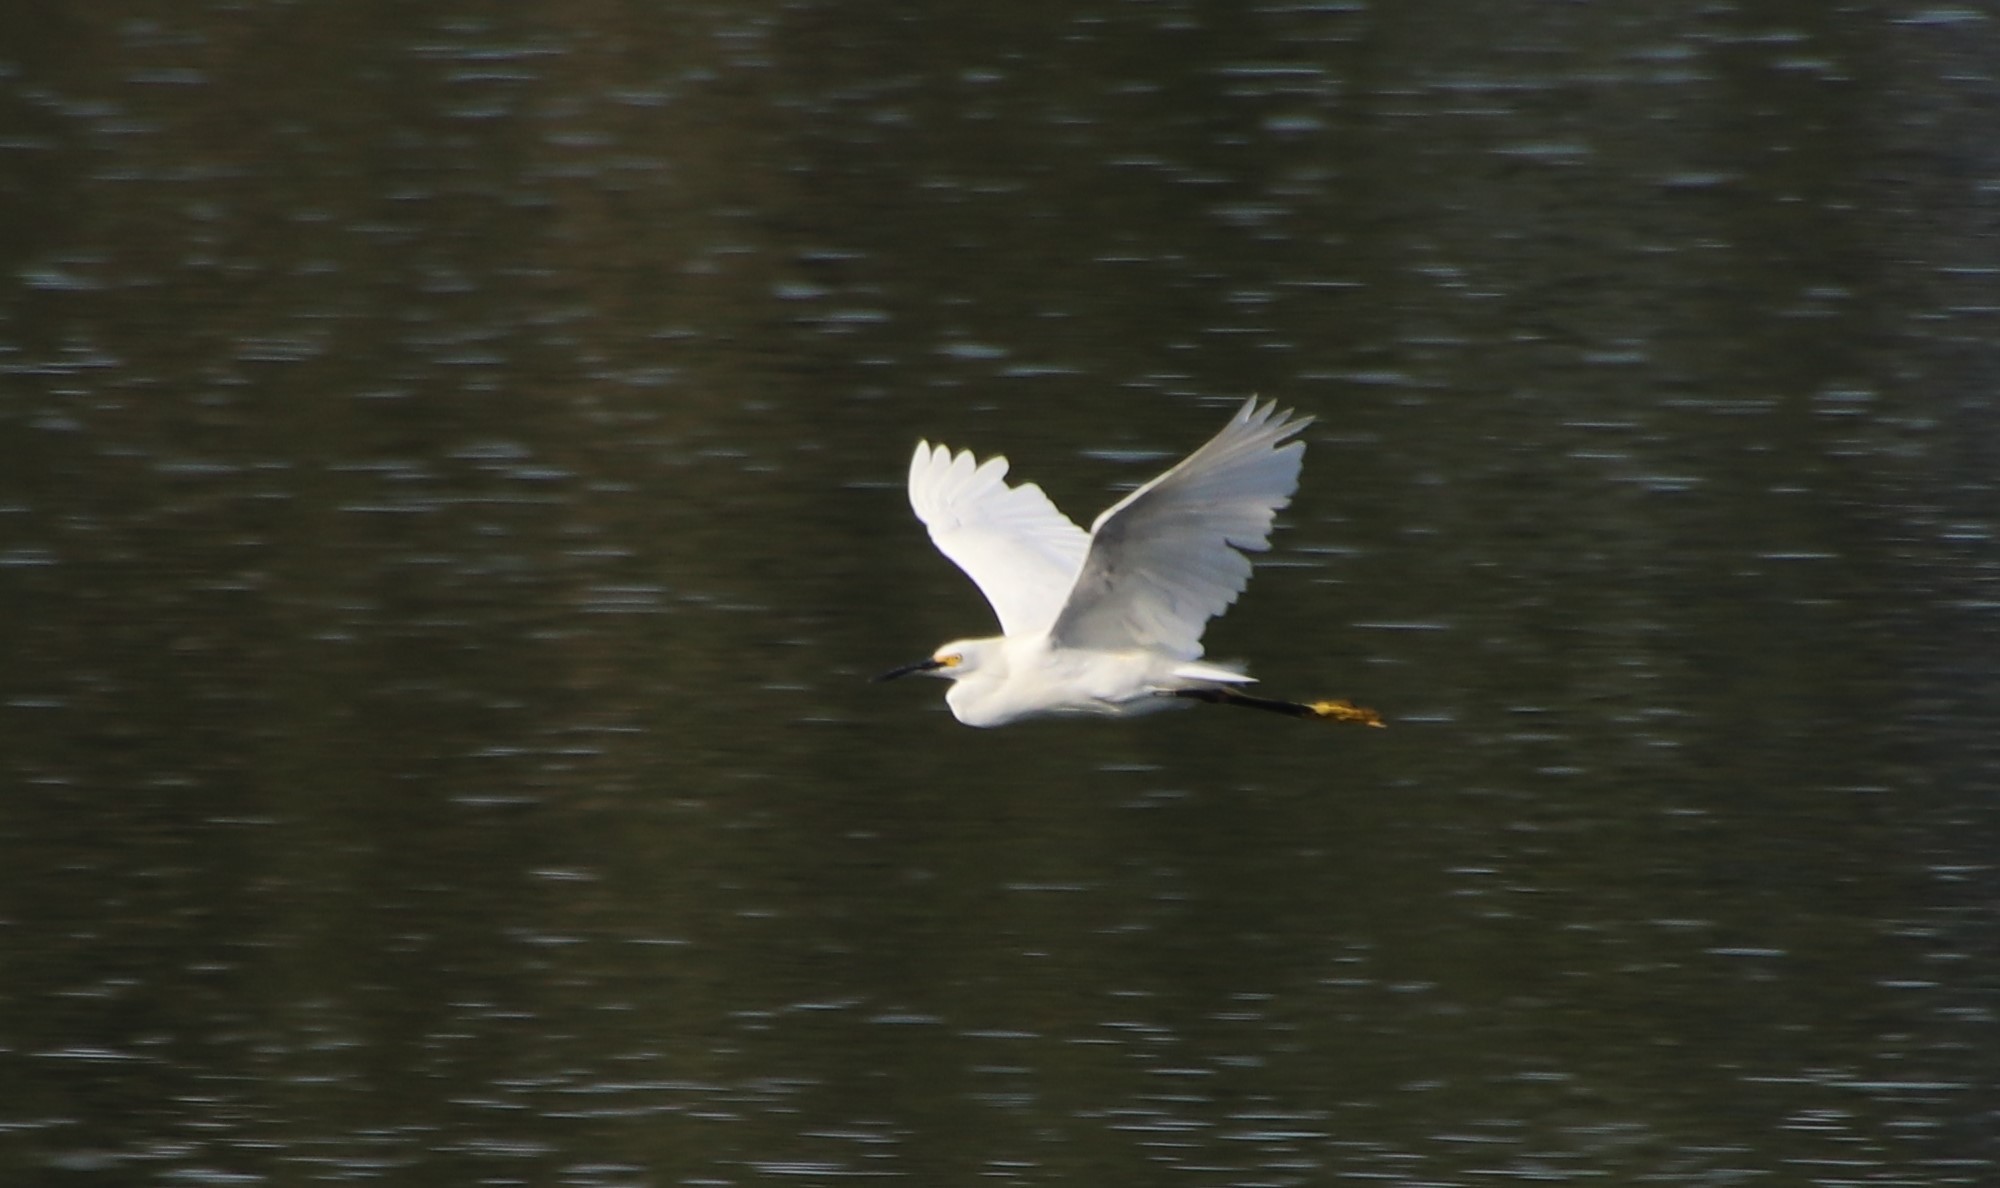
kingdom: Animalia
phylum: Chordata
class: Aves
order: Pelecaniformes
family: Ardeidae
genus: Egretta
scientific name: Egretta thula
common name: Snowy egret
